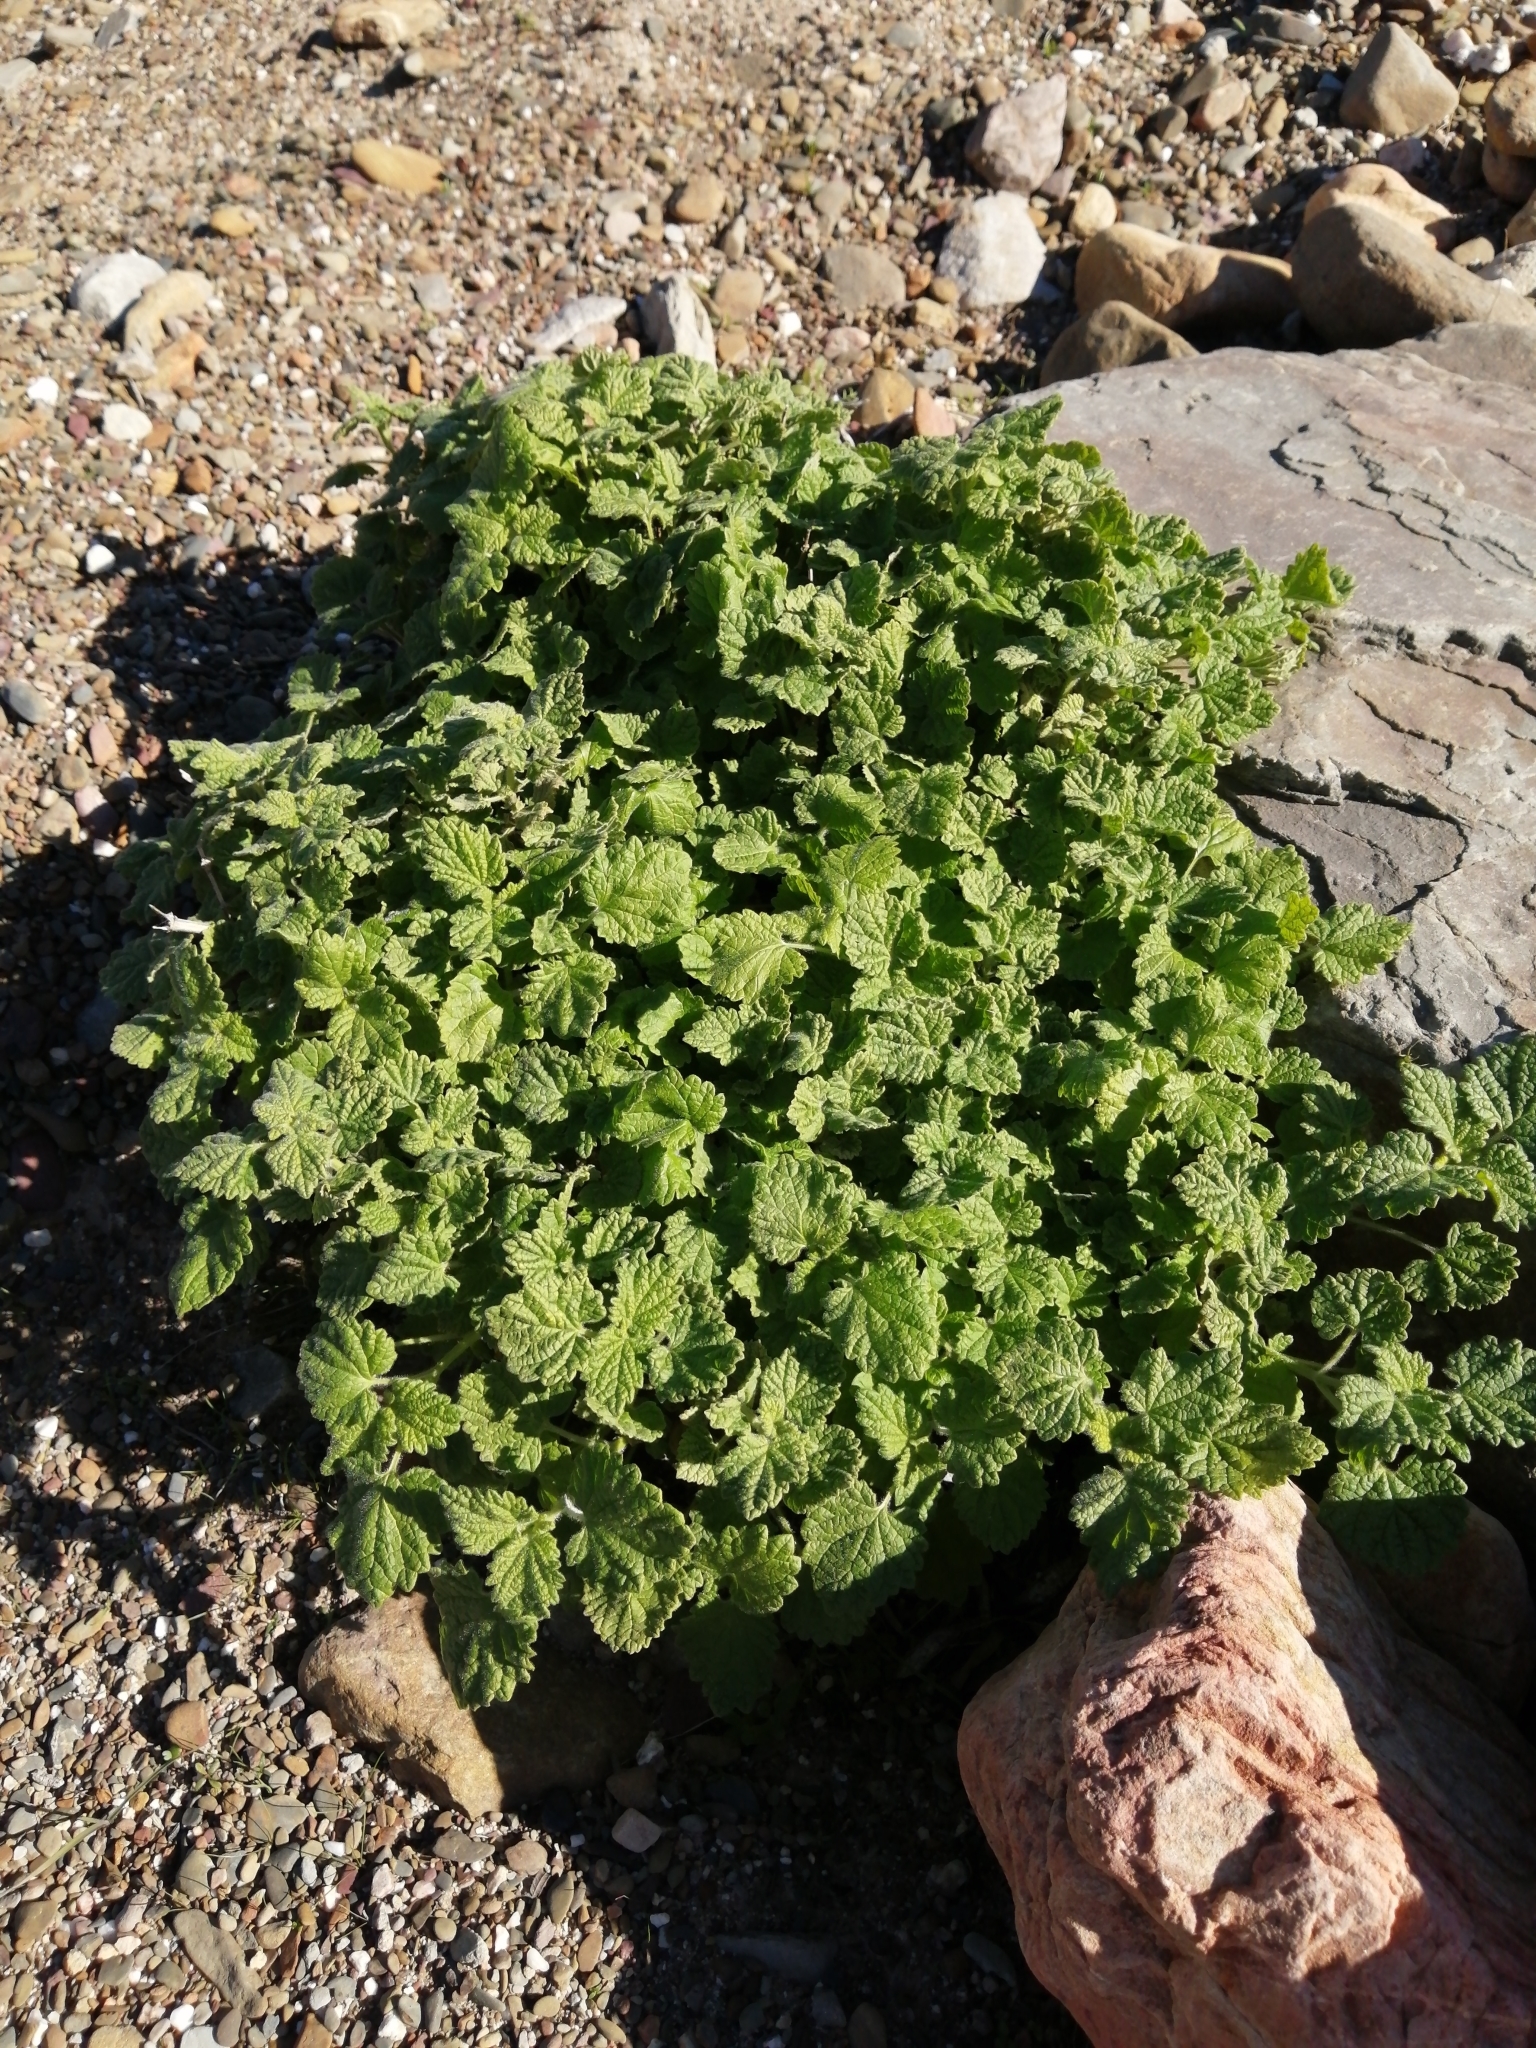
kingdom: Plantae
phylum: Tracheophyta
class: Magnoliopsida
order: Lamiales
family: Lamiaceae
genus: Pseudodictamnus
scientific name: Pseudodictamnus africanus
